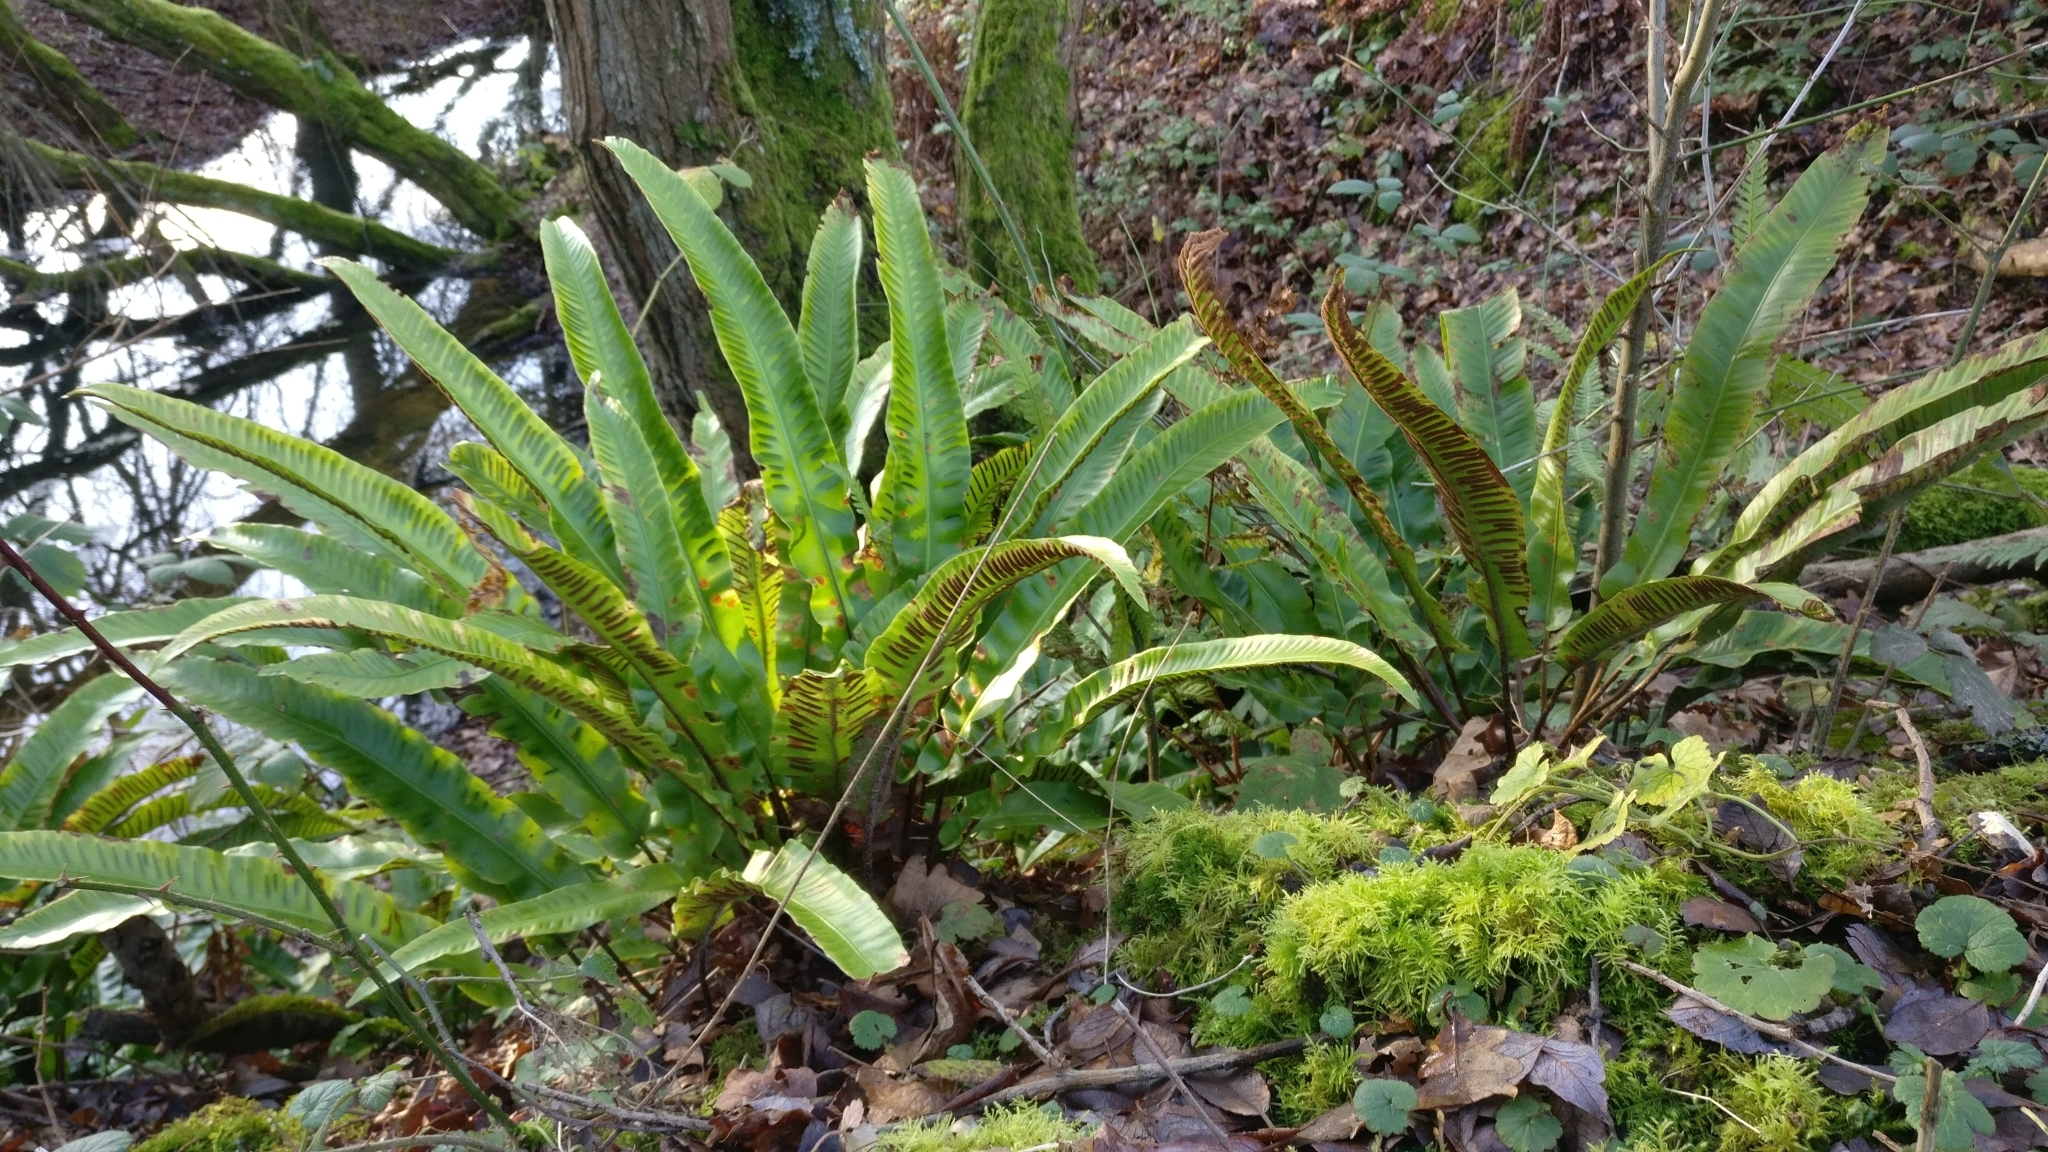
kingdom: Plantae
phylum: Tracheophyta
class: Polypodiopsida
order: Polypodiales
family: Aspleniaceae
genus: Asplenium
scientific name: Asplenium scolopendrium
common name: Hart's-tongue fern
